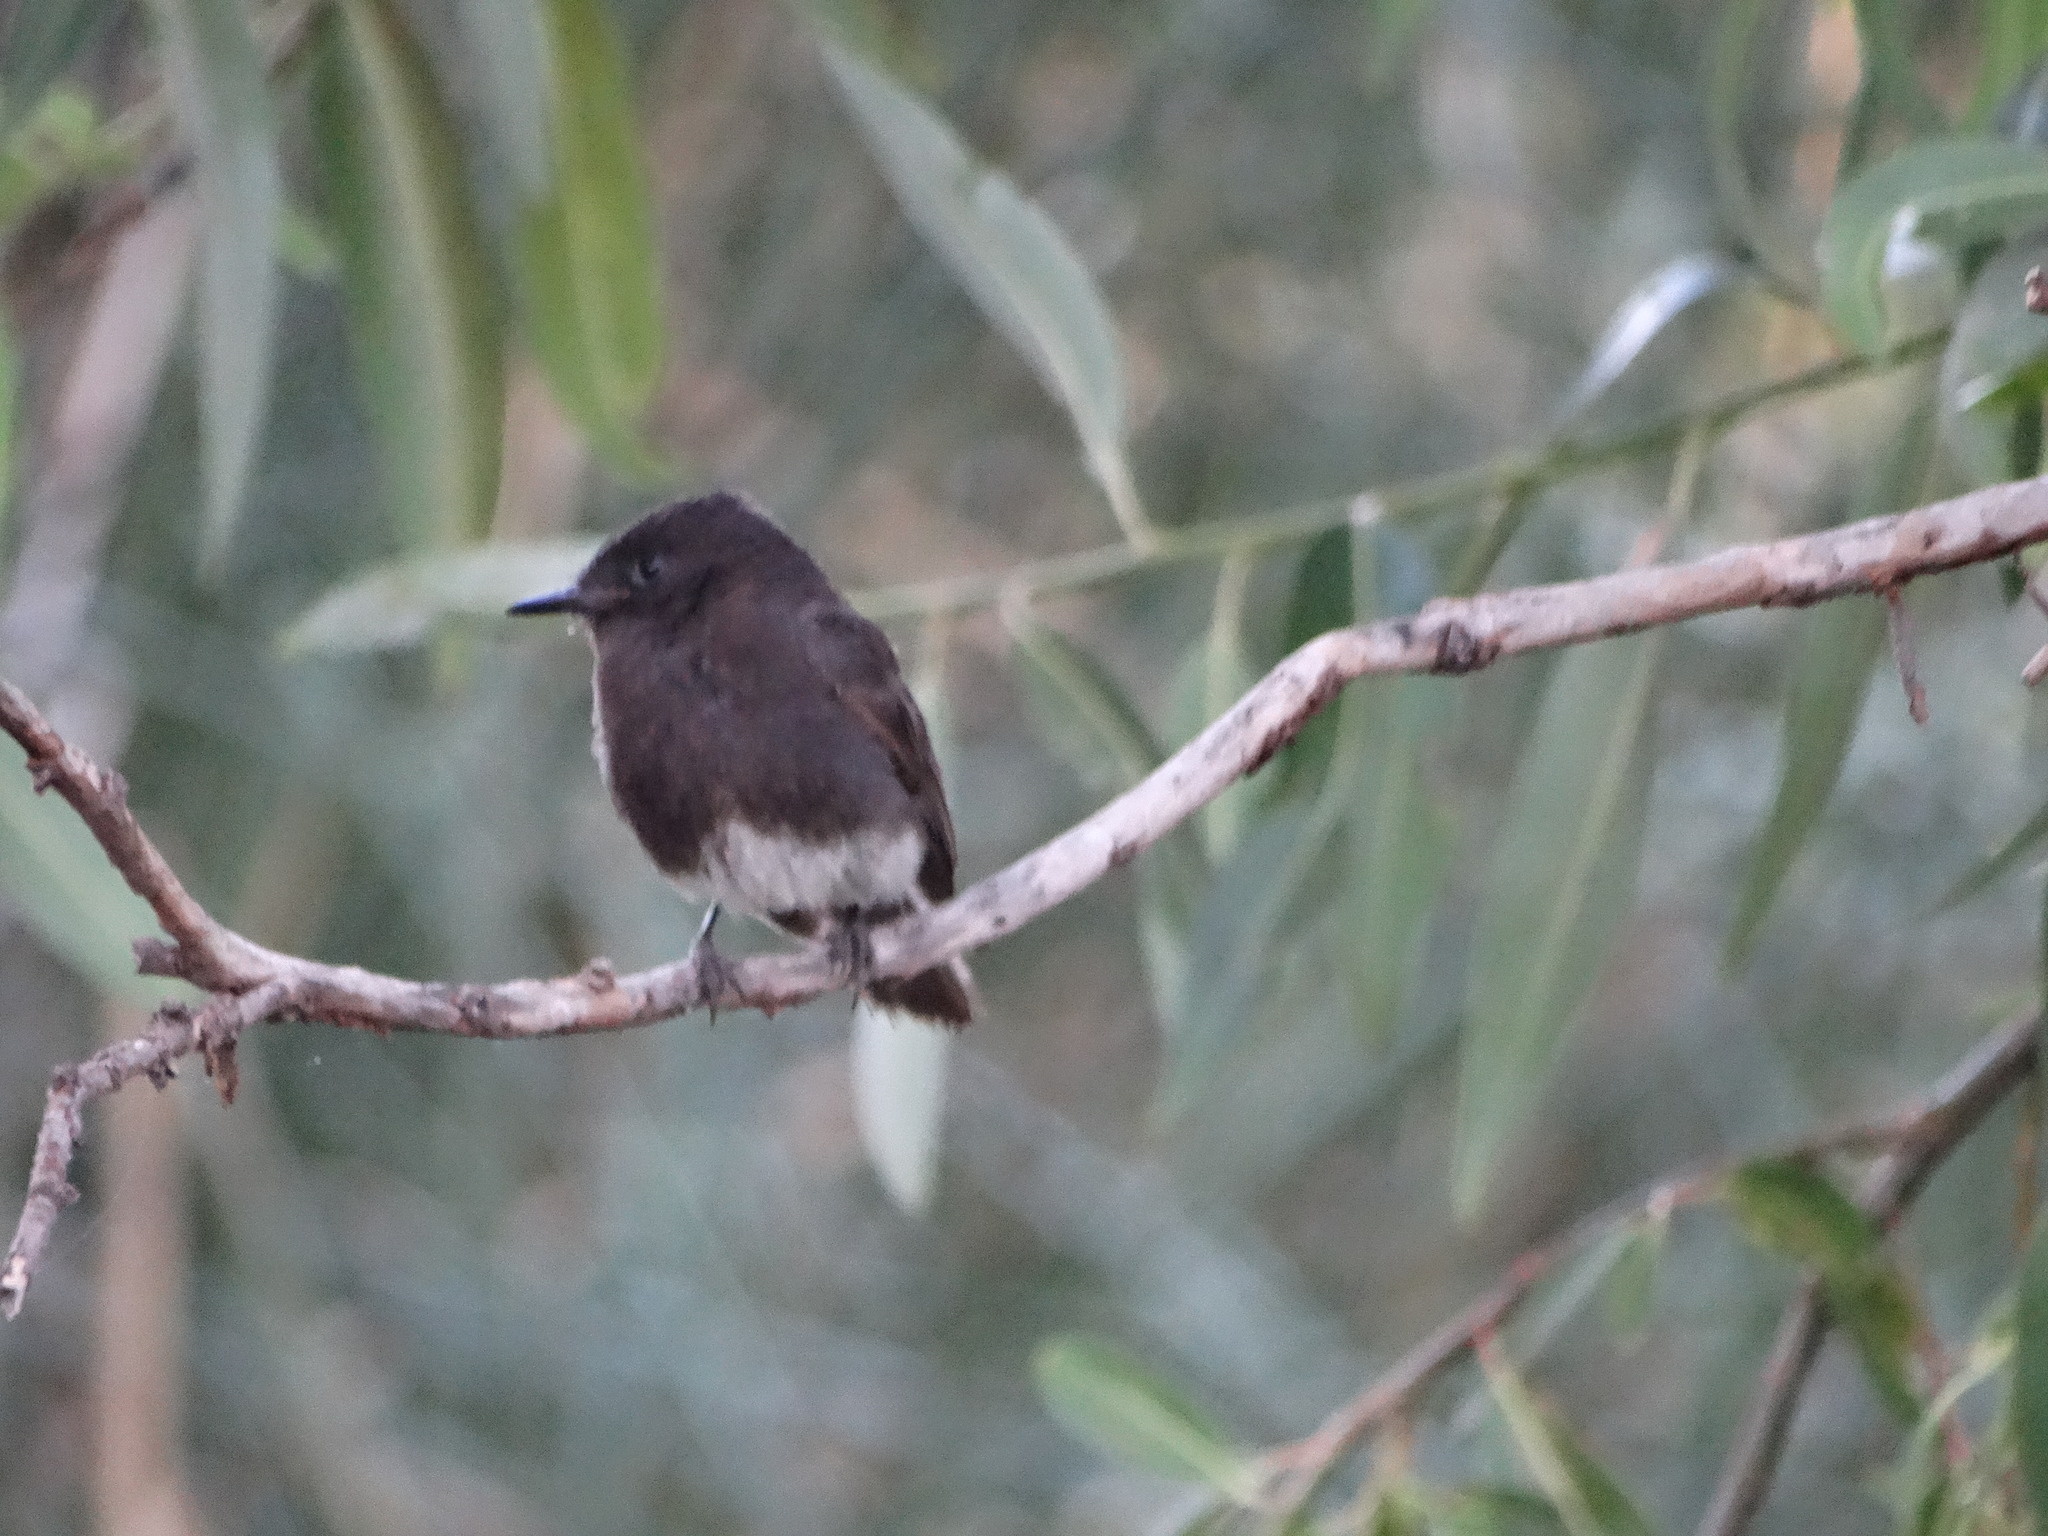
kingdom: Animalia
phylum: Chordata
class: Aves
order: Passeriformes
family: Tyrannidae
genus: Sayornis
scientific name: Sayornis nigricans
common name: Black phoebe
